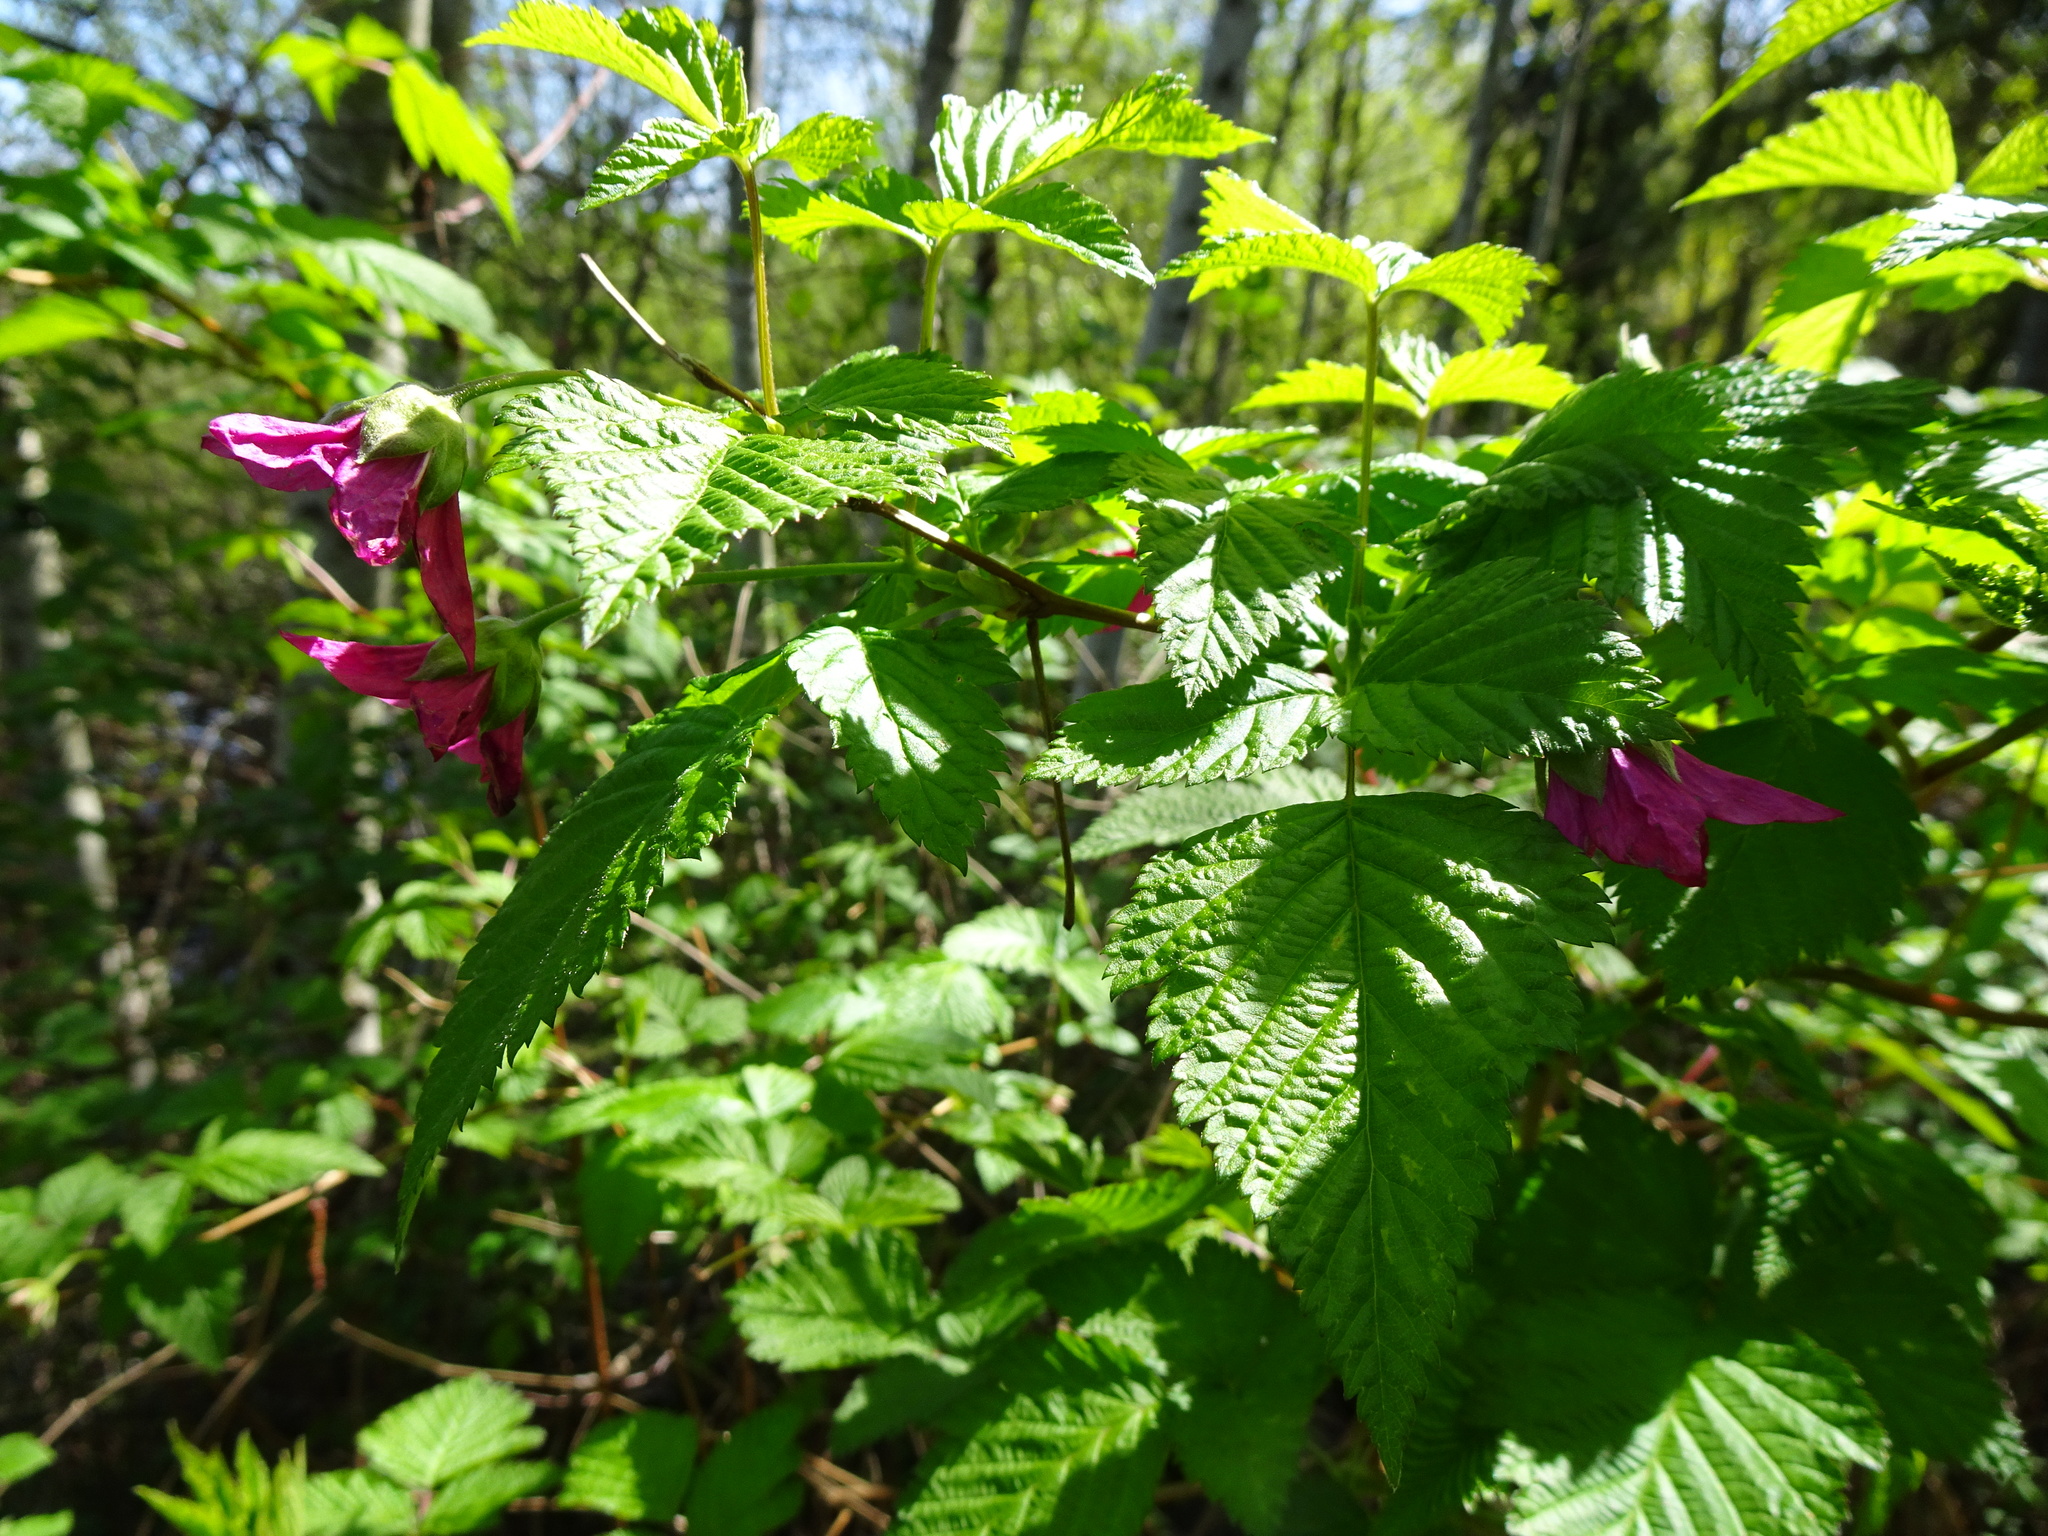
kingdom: Plantae
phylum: Tracheophyta
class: Magnoliopsida
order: Rosales
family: Rosaceae
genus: Rubus
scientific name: Rubus spectabilis
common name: Salmonberry
